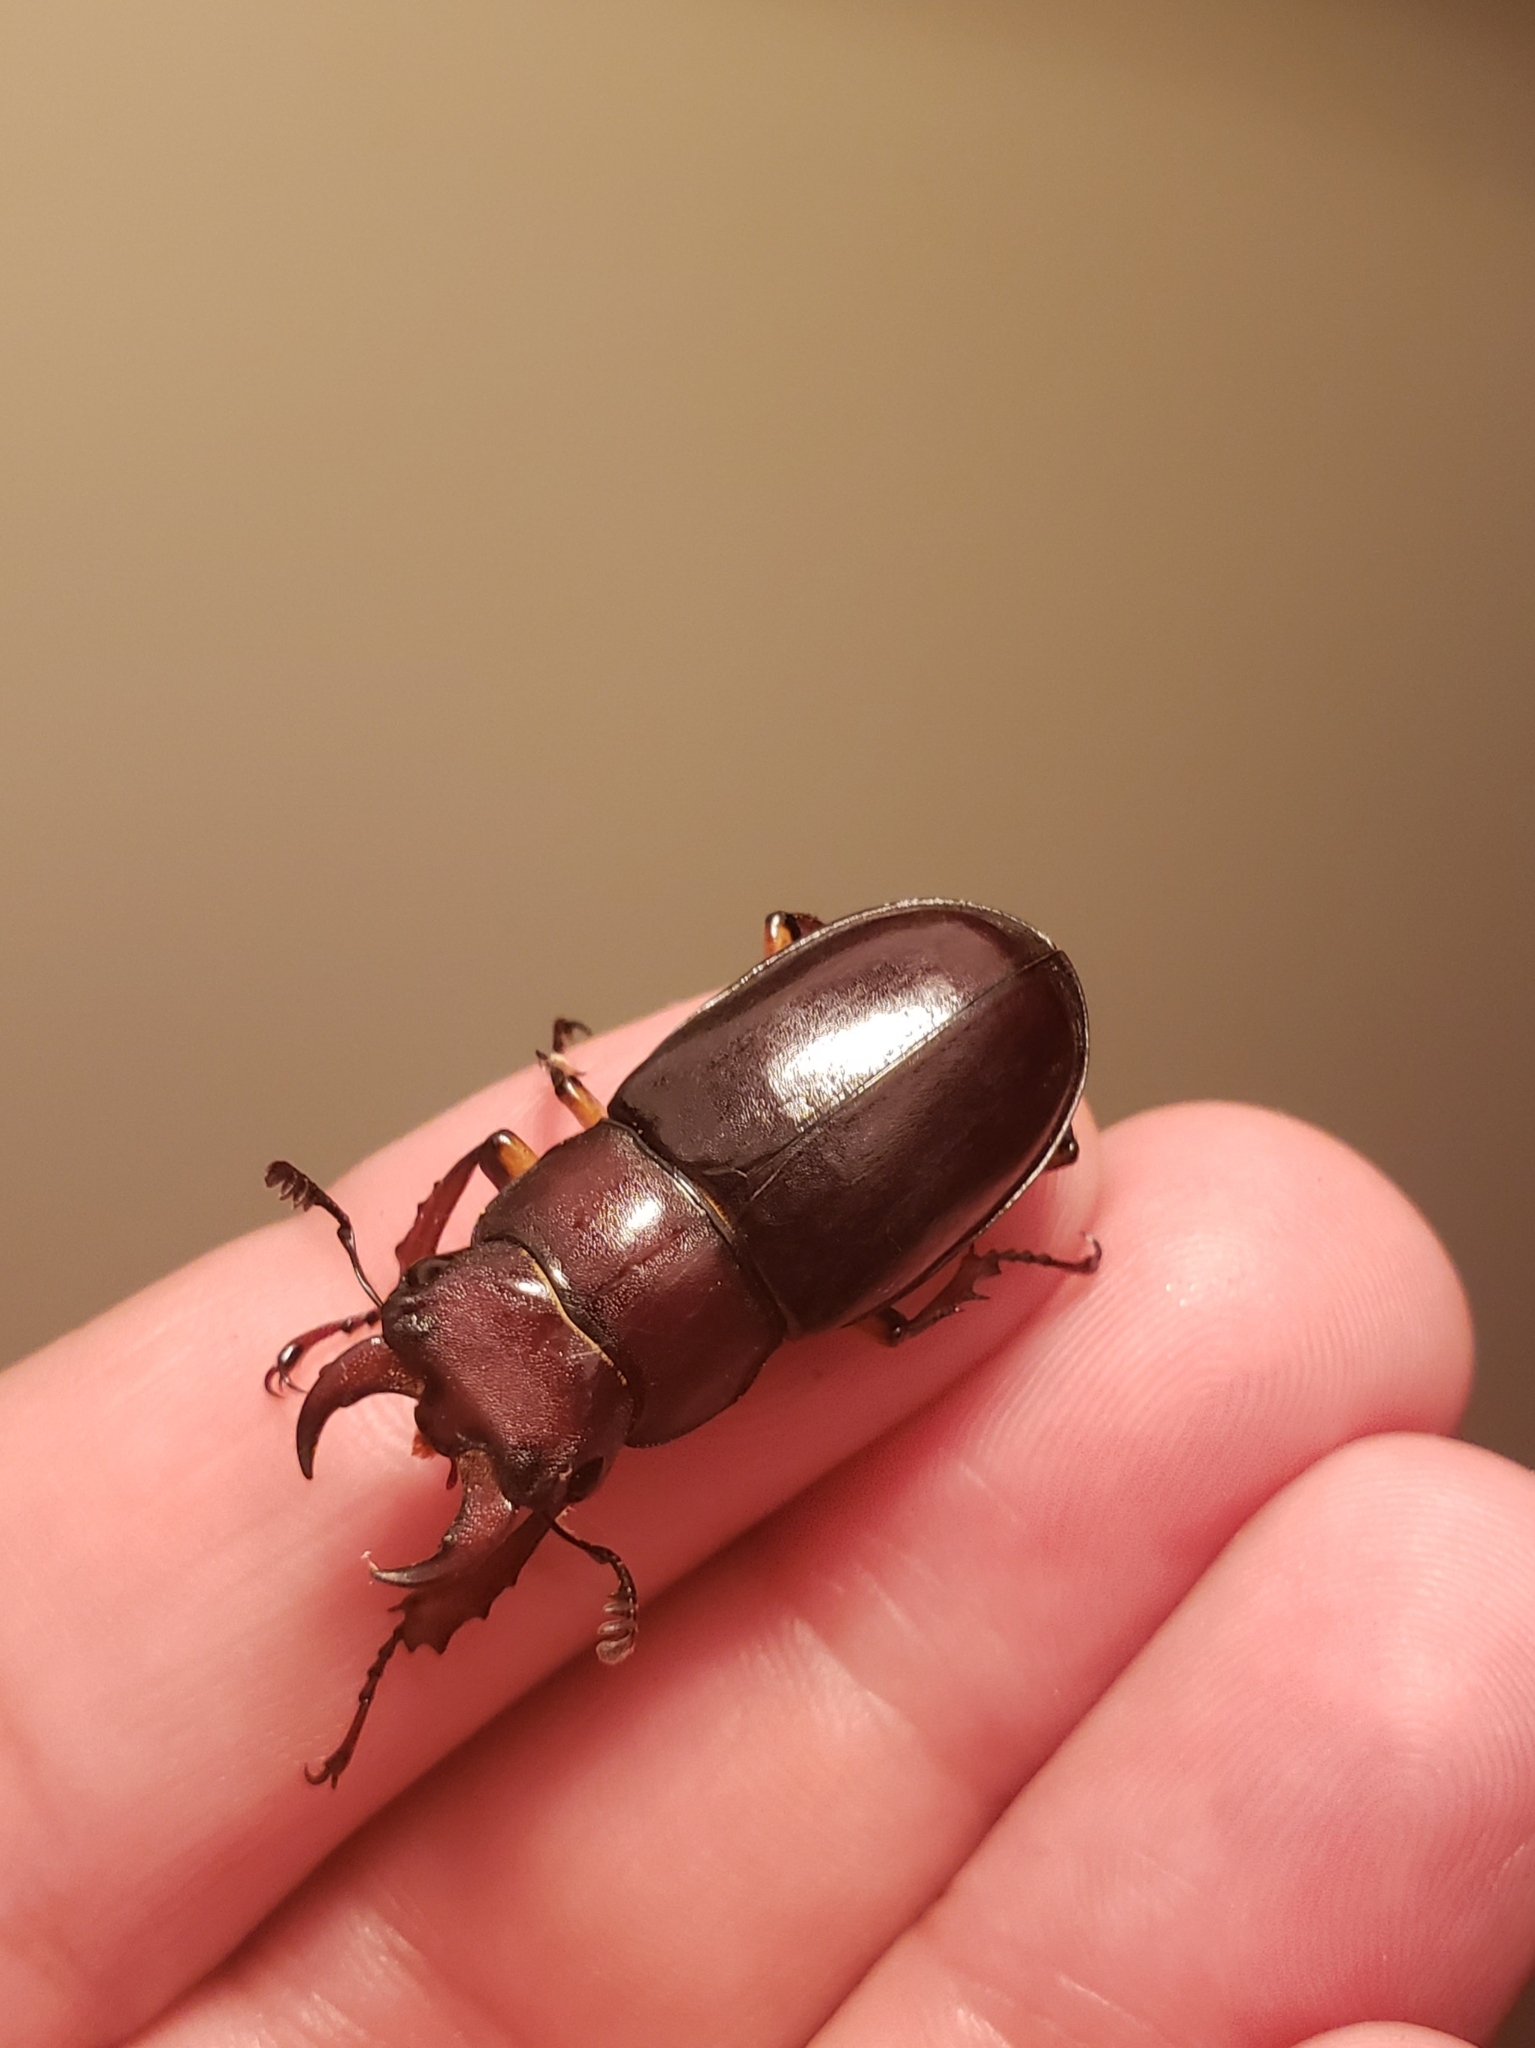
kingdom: Animalia
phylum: Arthropoda
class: Insecta
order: Coleoptera
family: Lucanidae
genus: Lucanus
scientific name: Lucanus capreolus
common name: Stag beetle
